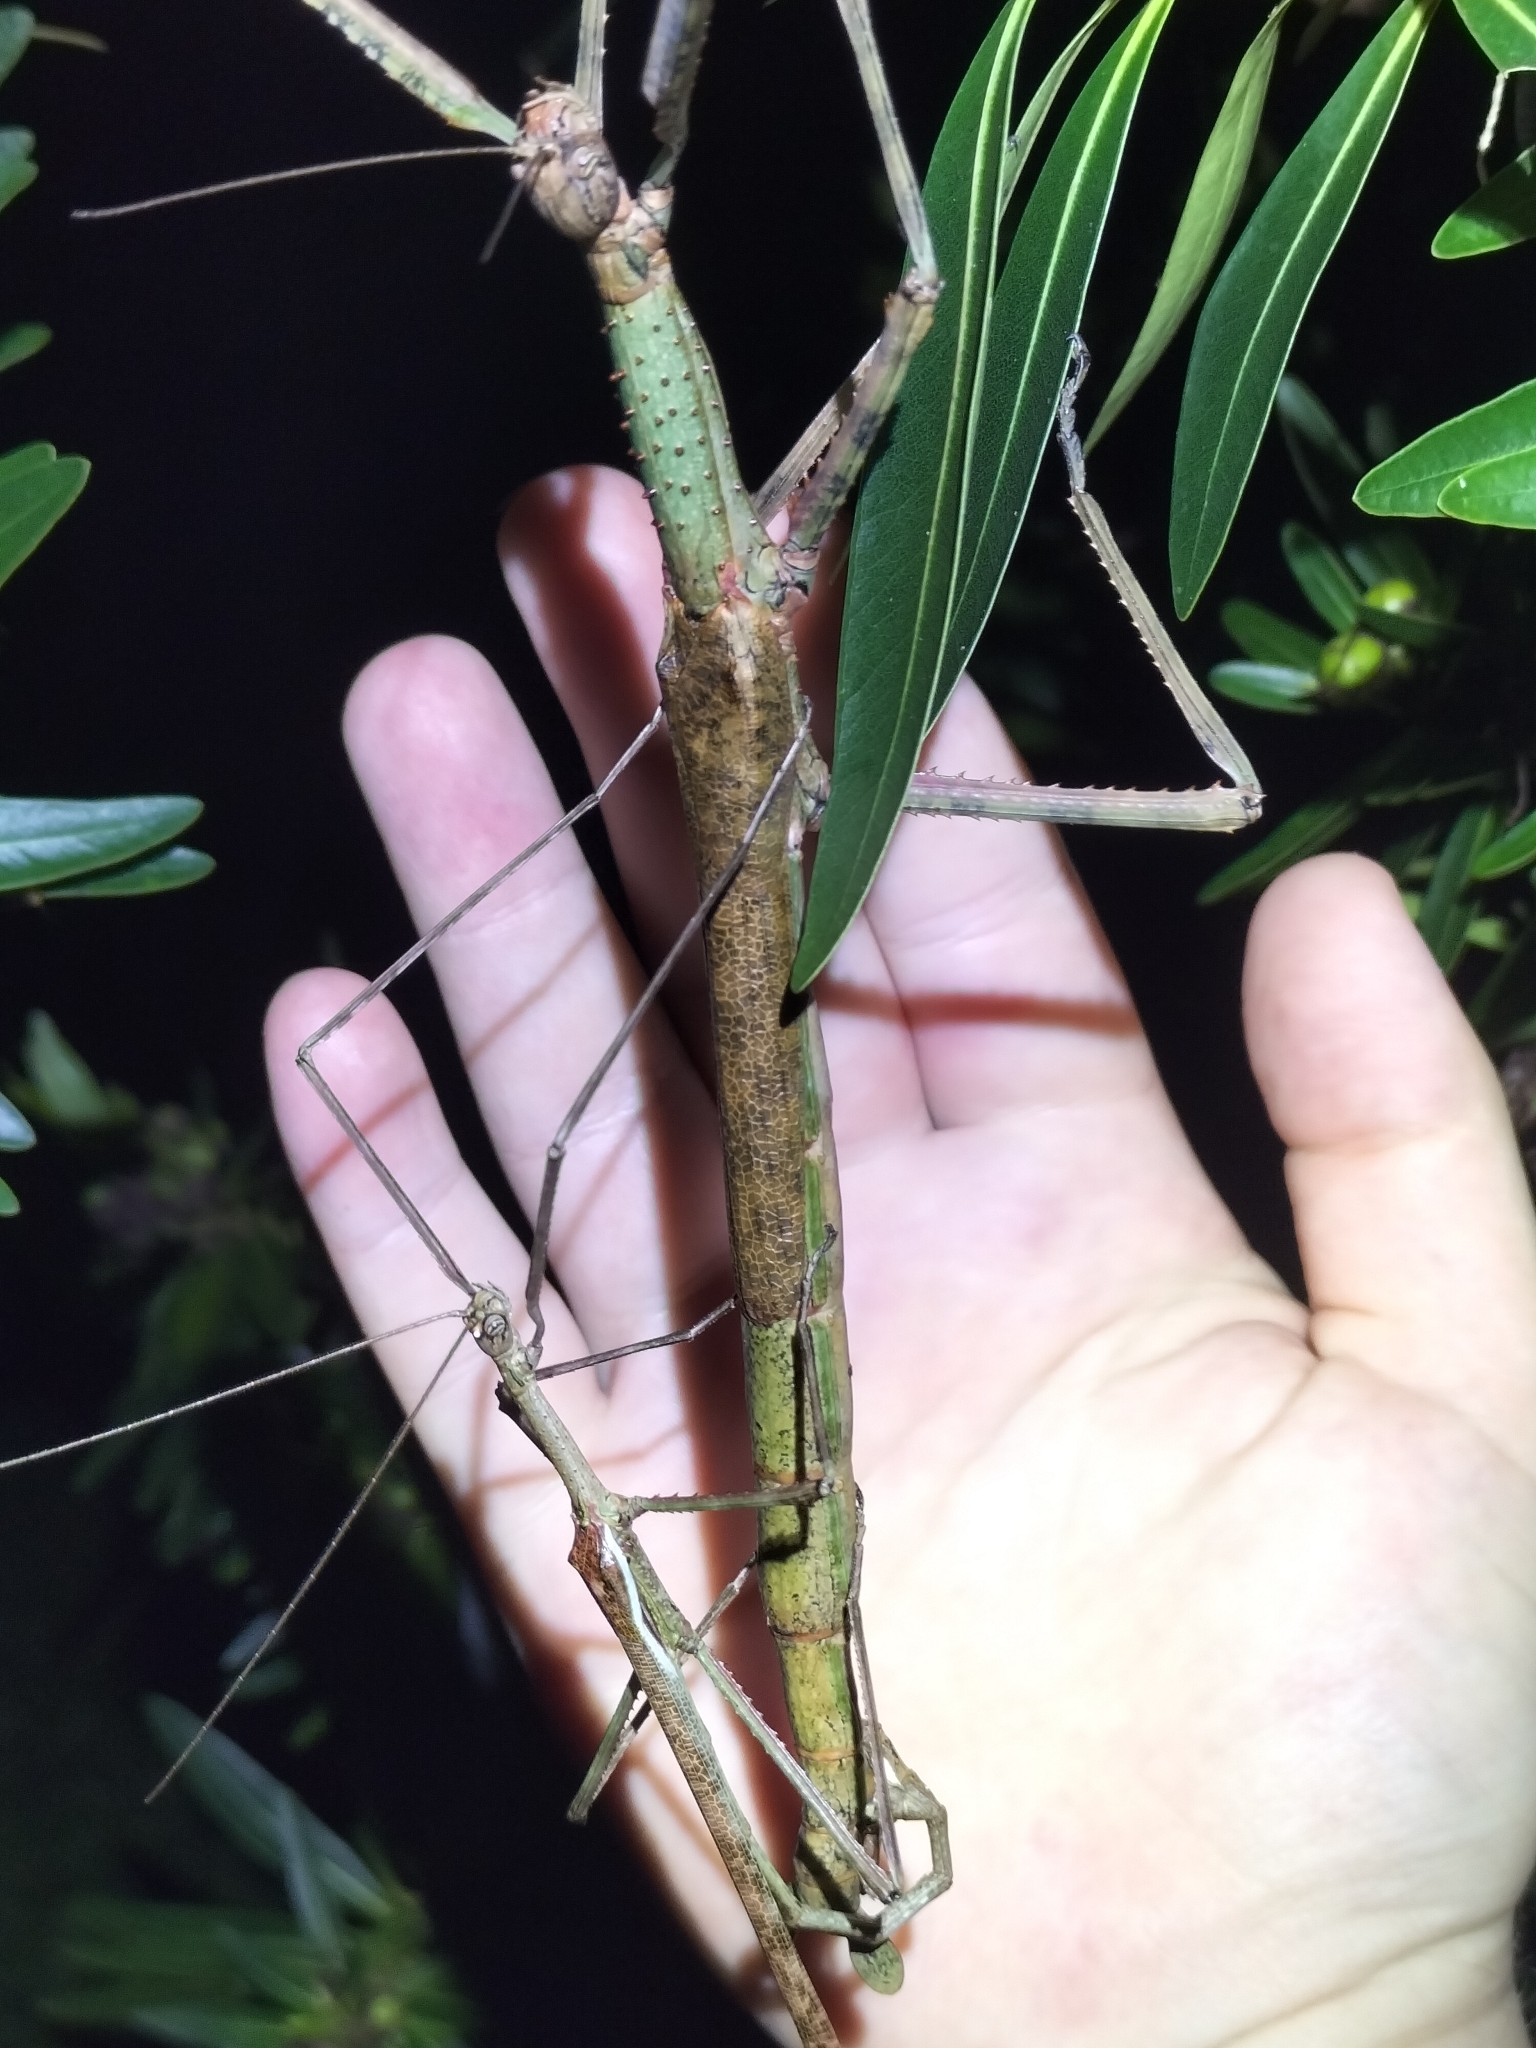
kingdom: Animalia
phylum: Arthropoda
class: Insecta
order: Phasmida
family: Phasmatidae
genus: Anchiale
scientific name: Anchiale briareus
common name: Strong stick insect
